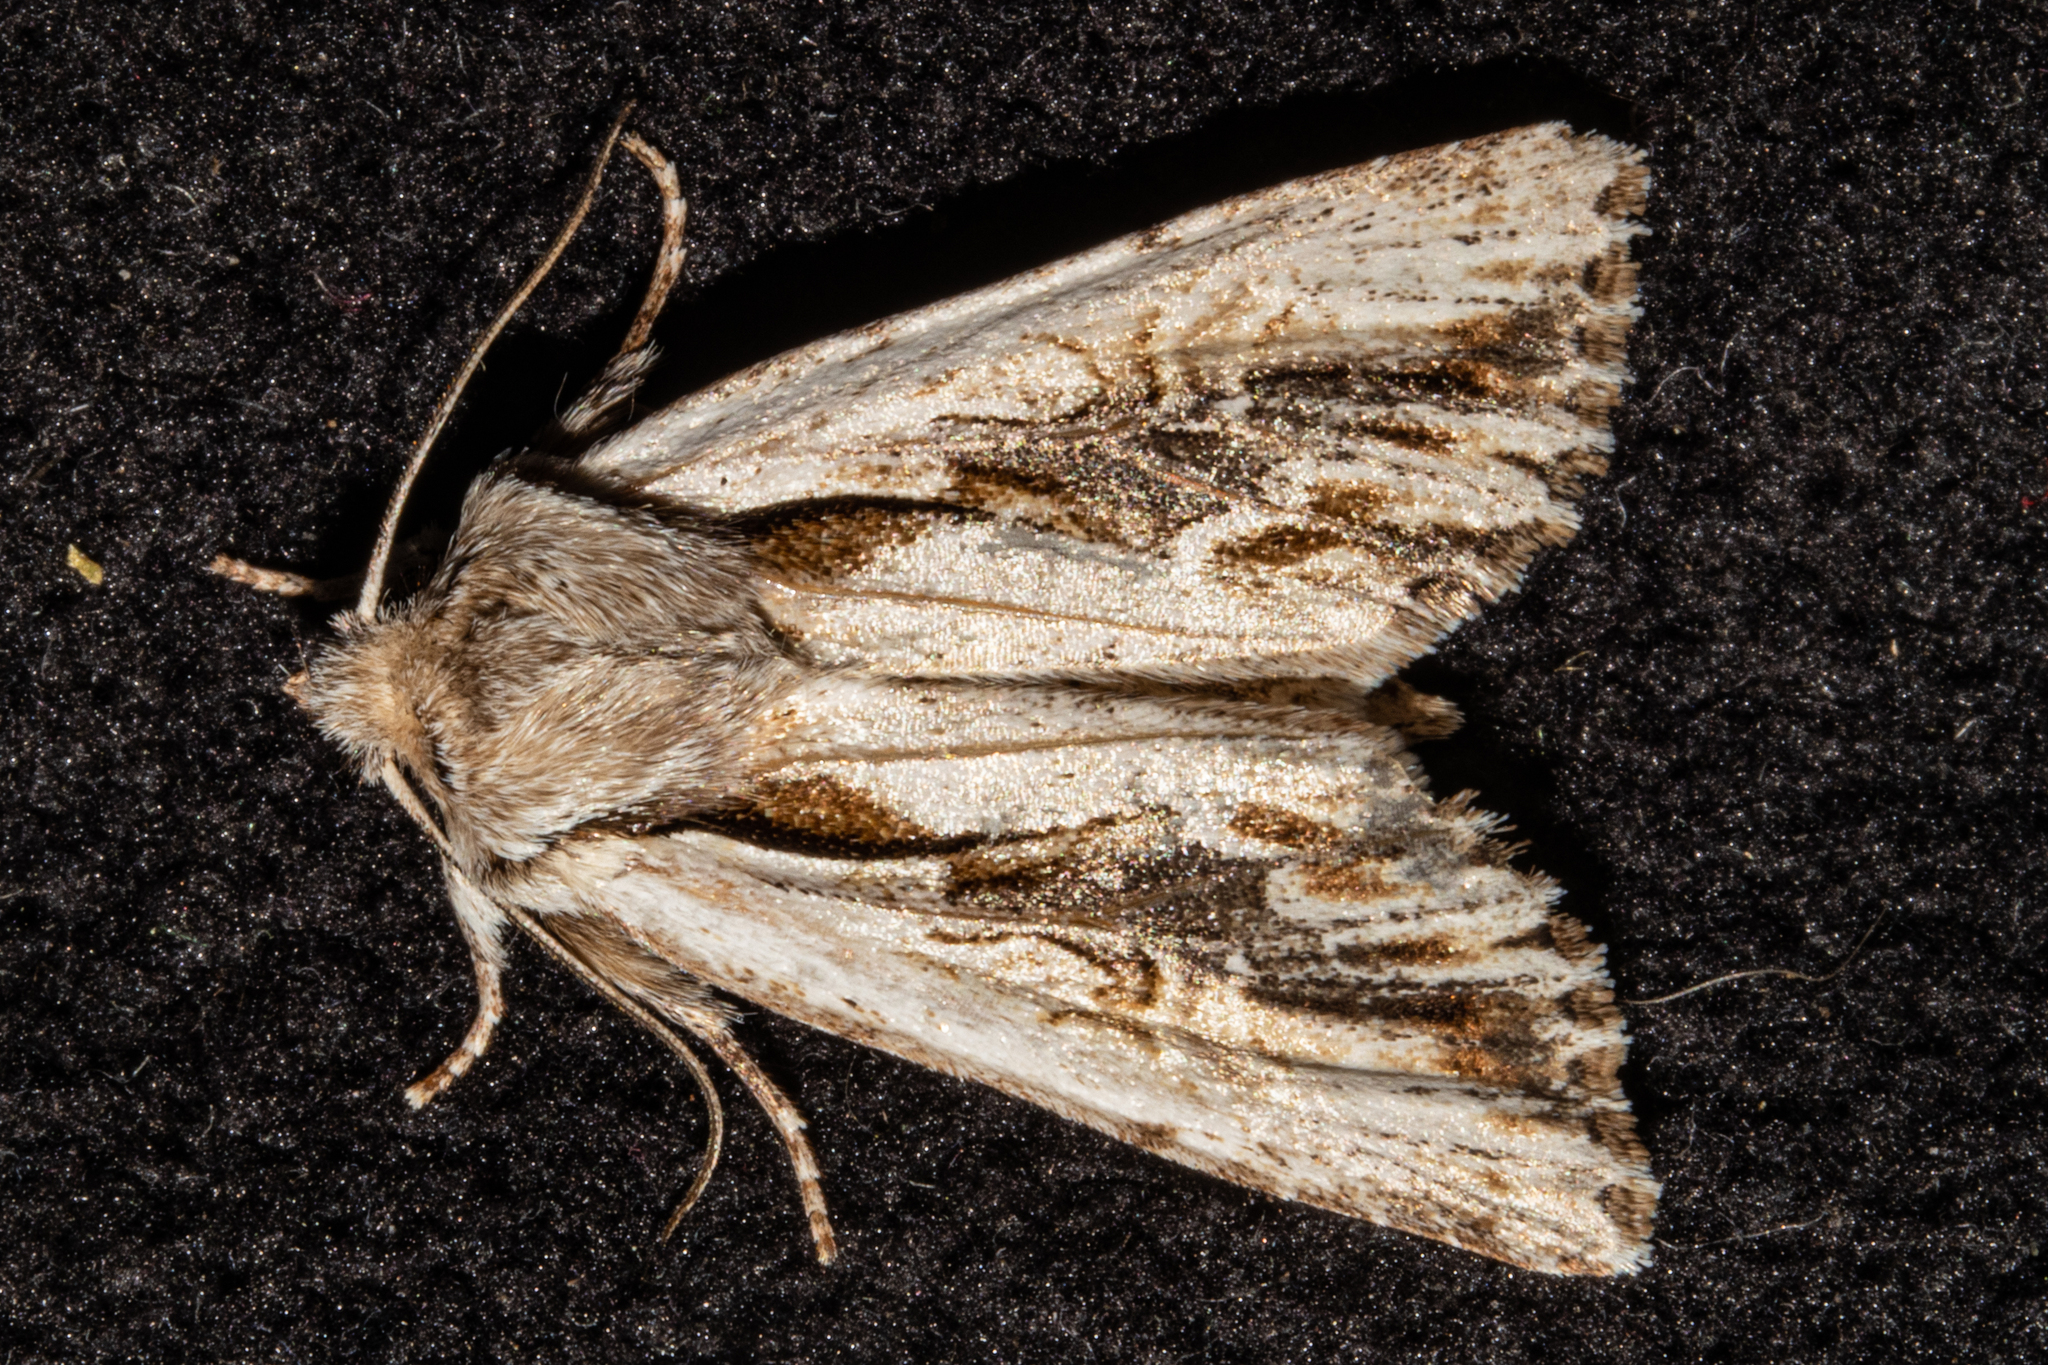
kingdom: Animalia
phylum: Arthropoda
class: Insecta
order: Lepidoptera
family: Noctuidae
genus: Ichneutica
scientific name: Ichneutica
